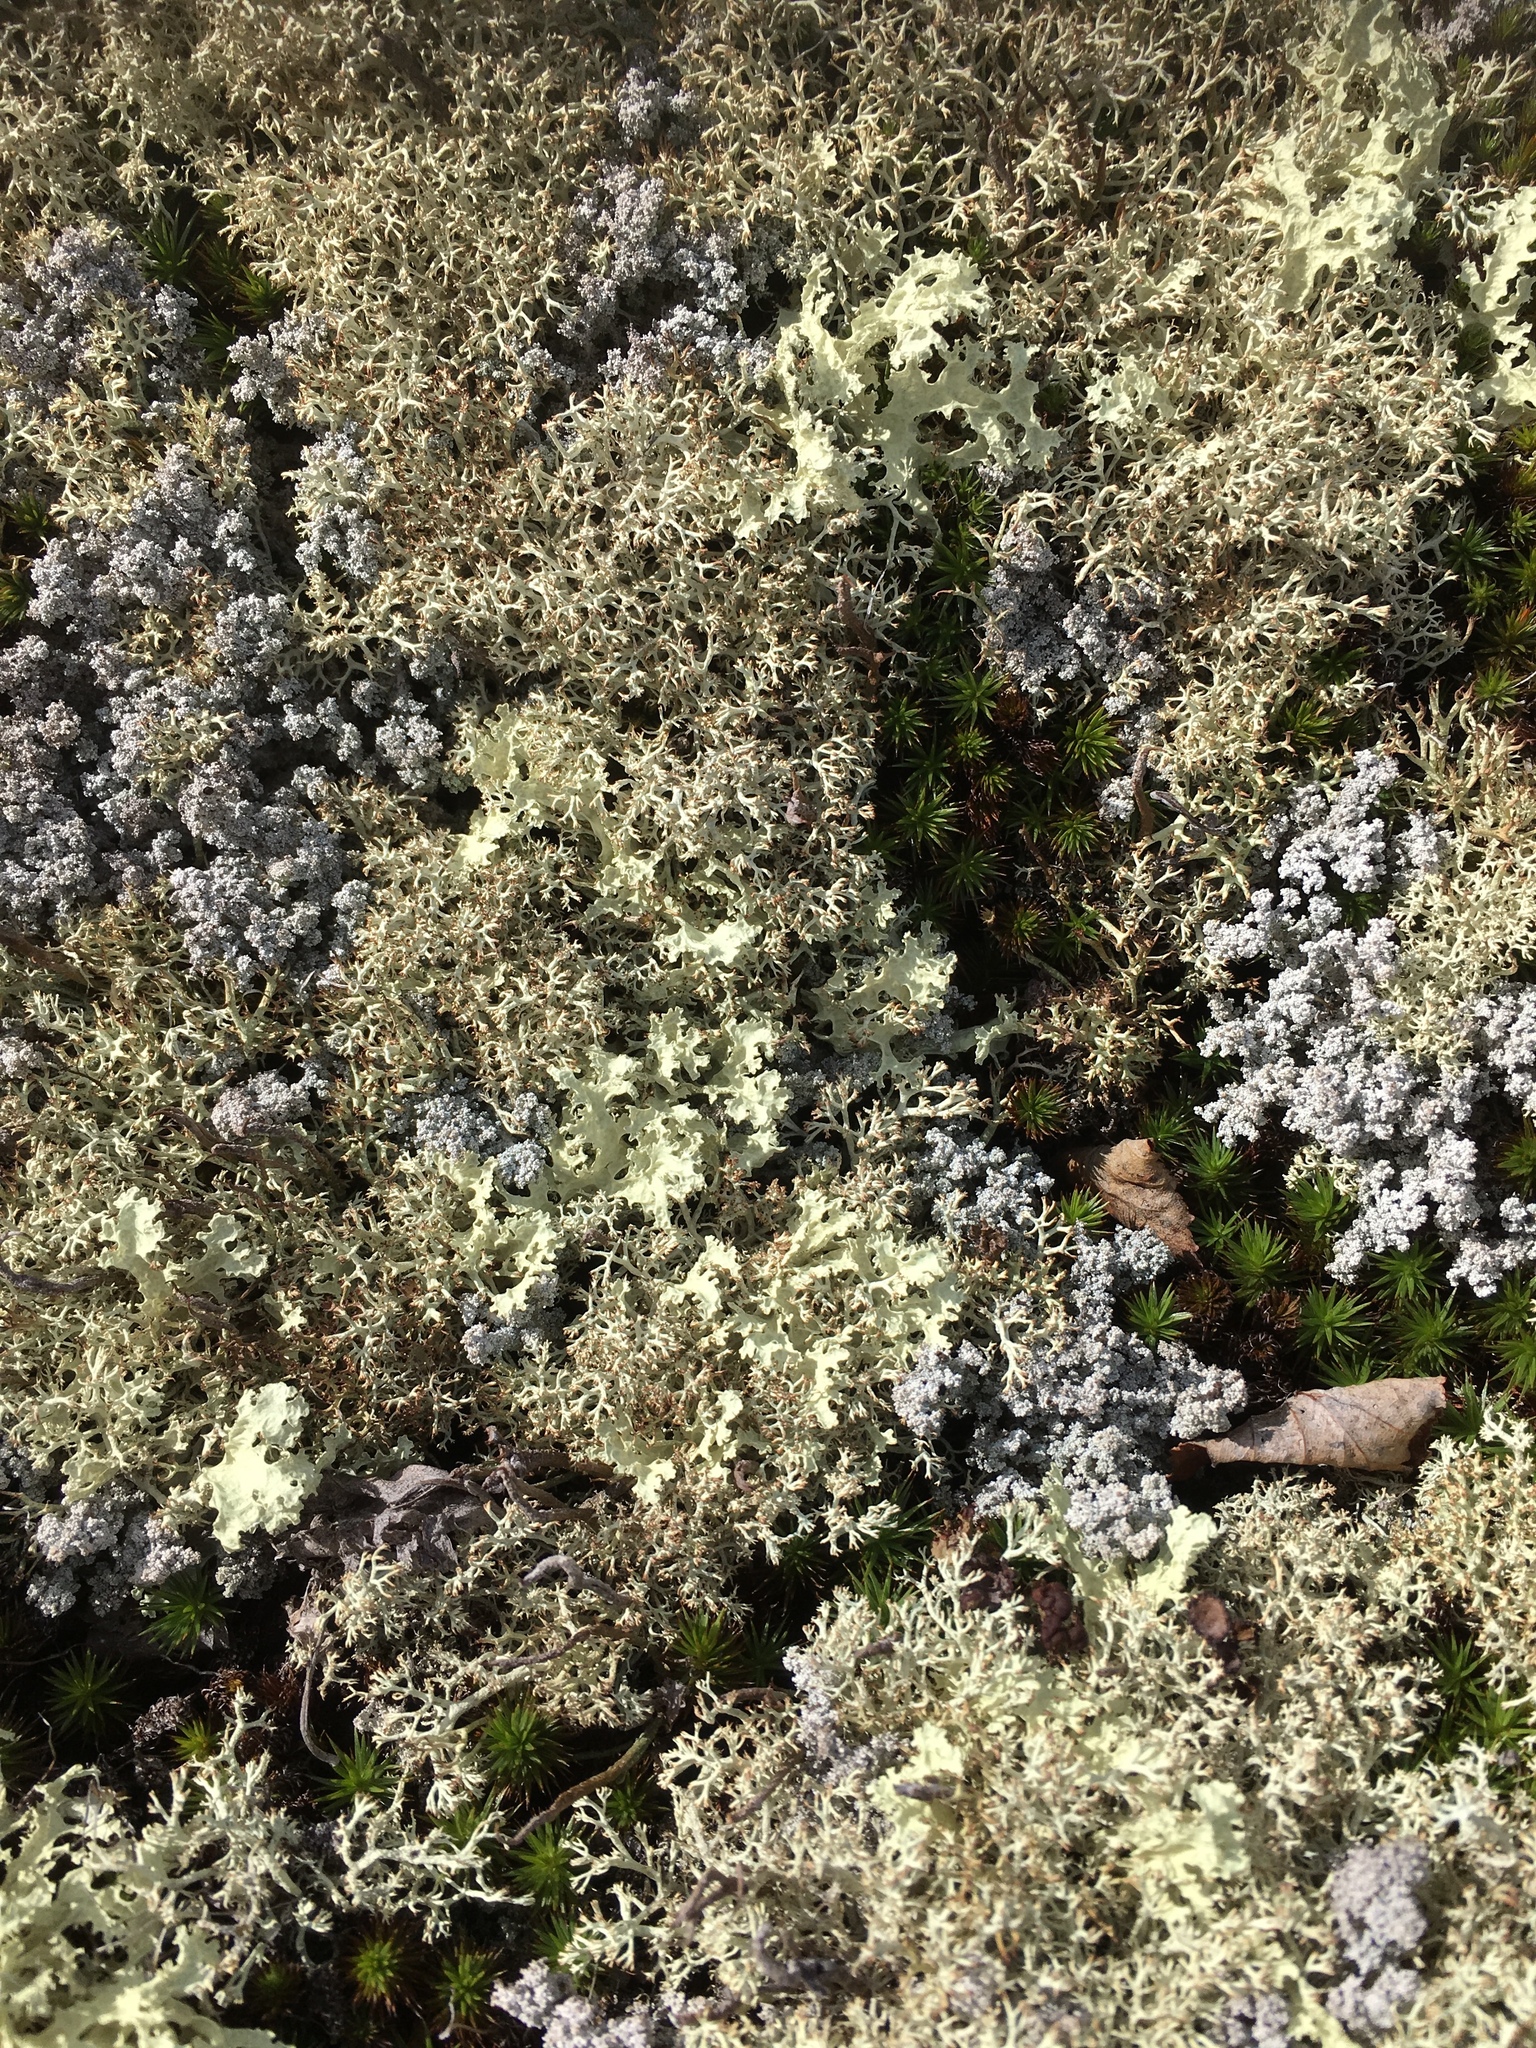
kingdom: Fungi
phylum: Ascomycota
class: Lecanoromycetes
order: Lecanorales
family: Parmeliaceae
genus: Nephromopsis
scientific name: Nephromopsis nivalis
